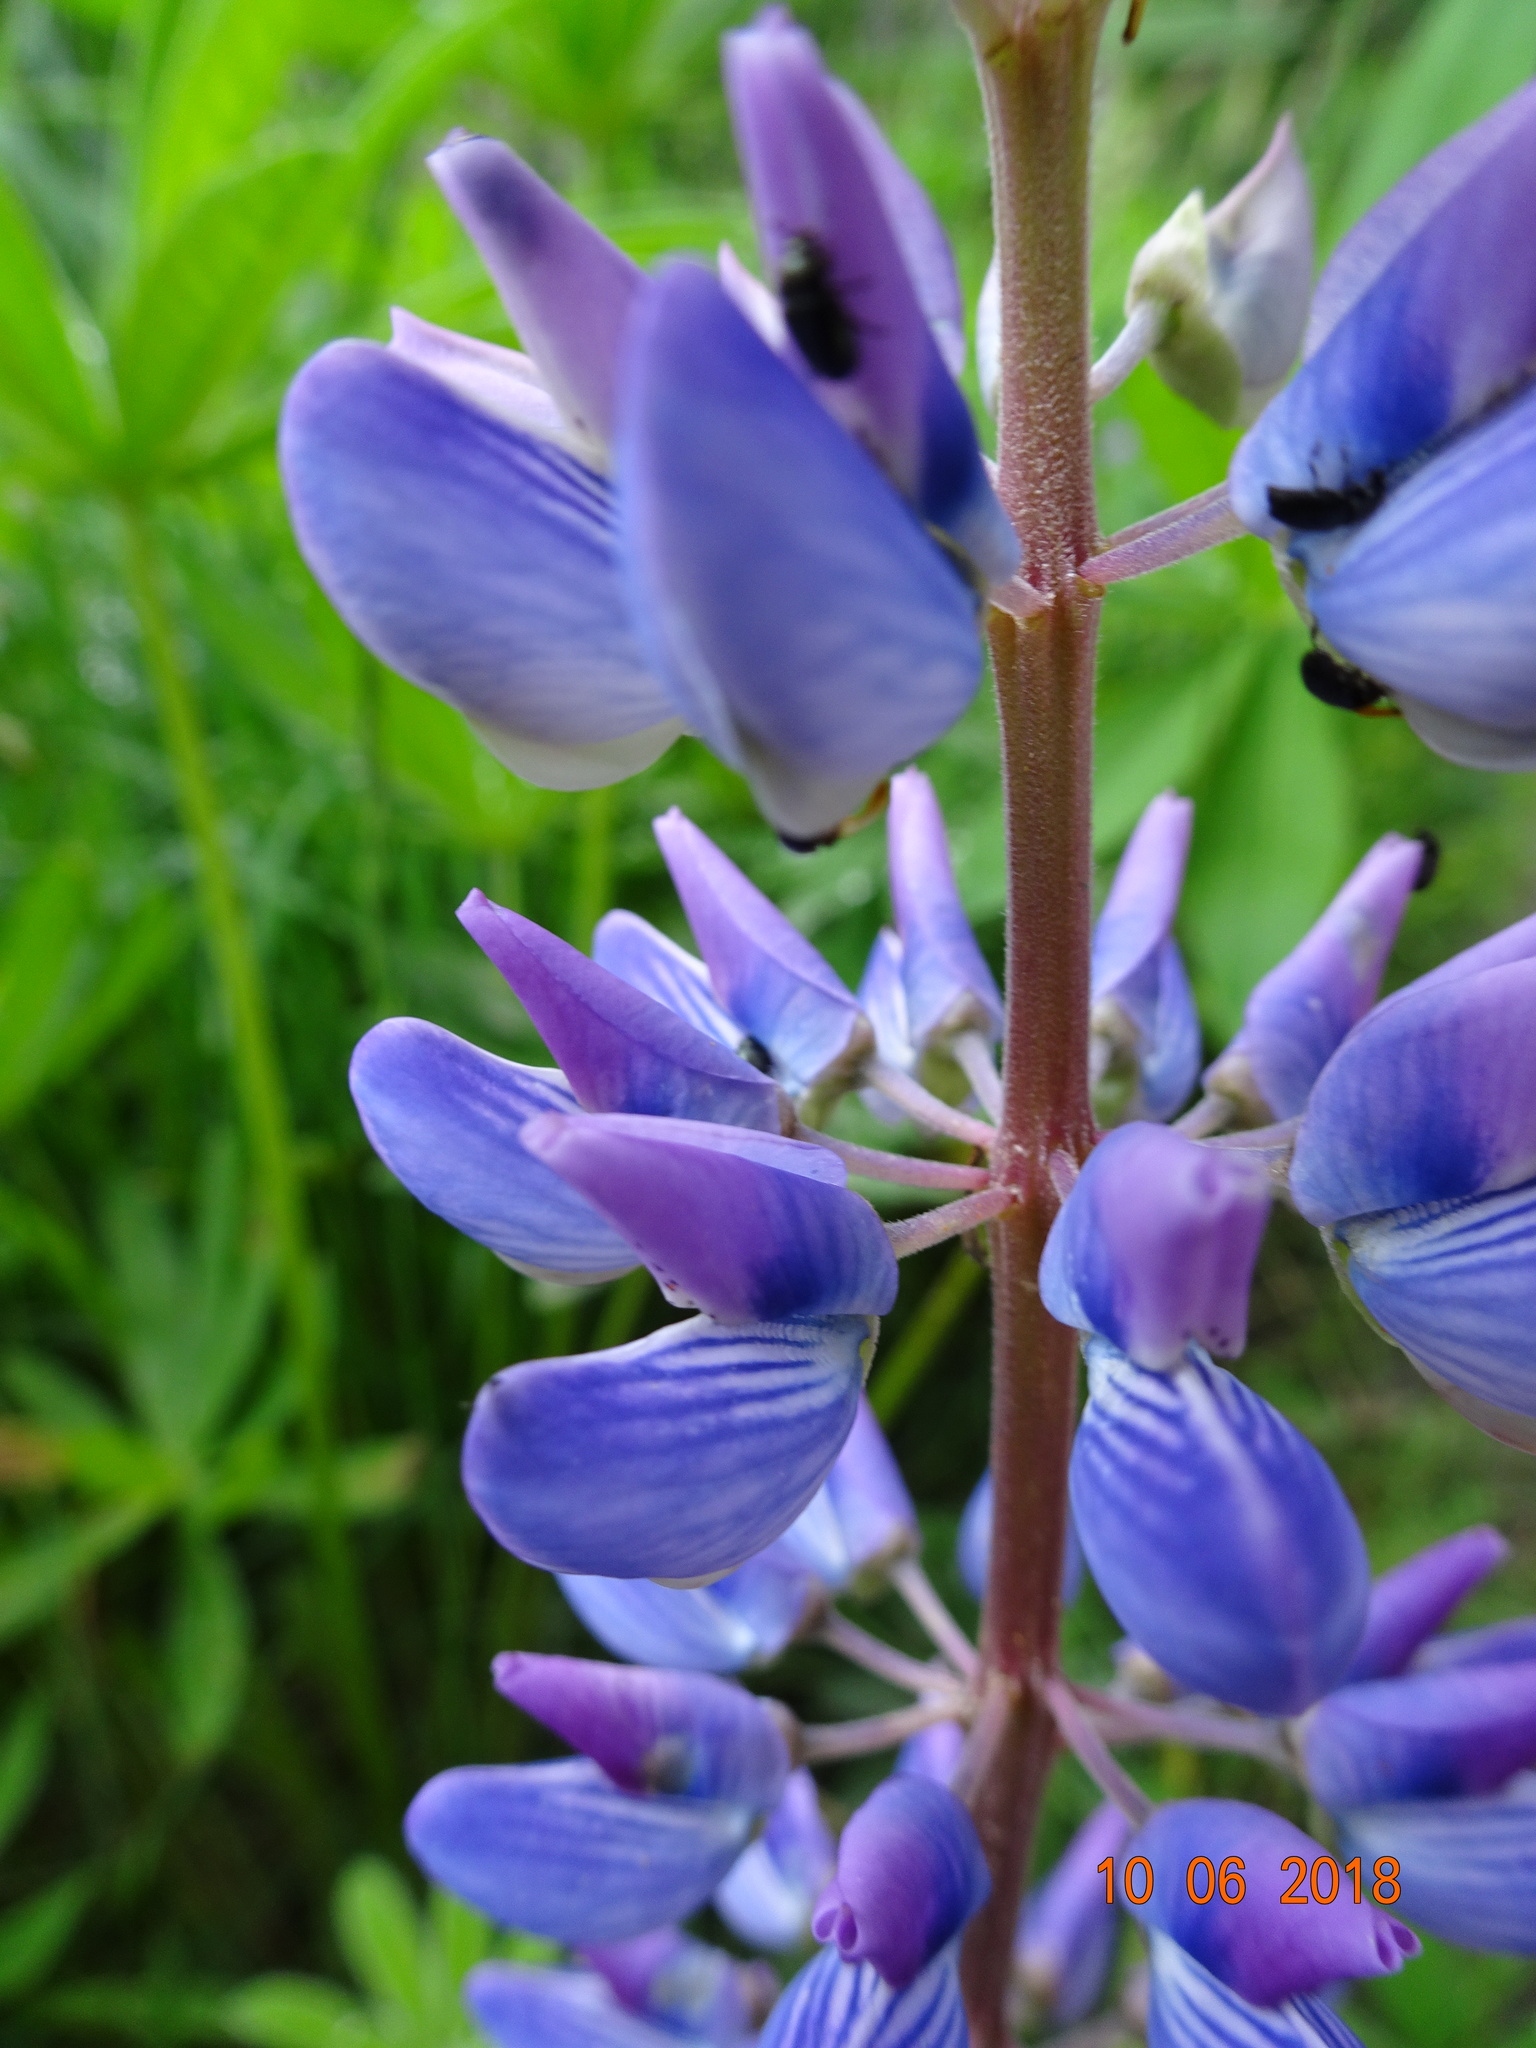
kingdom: Plantae
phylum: Tracheophyta
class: Magnoliopsida
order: Fabales
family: Fabaceae
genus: Lupinus
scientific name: Lupinus polyphyllus
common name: Garden lupin
